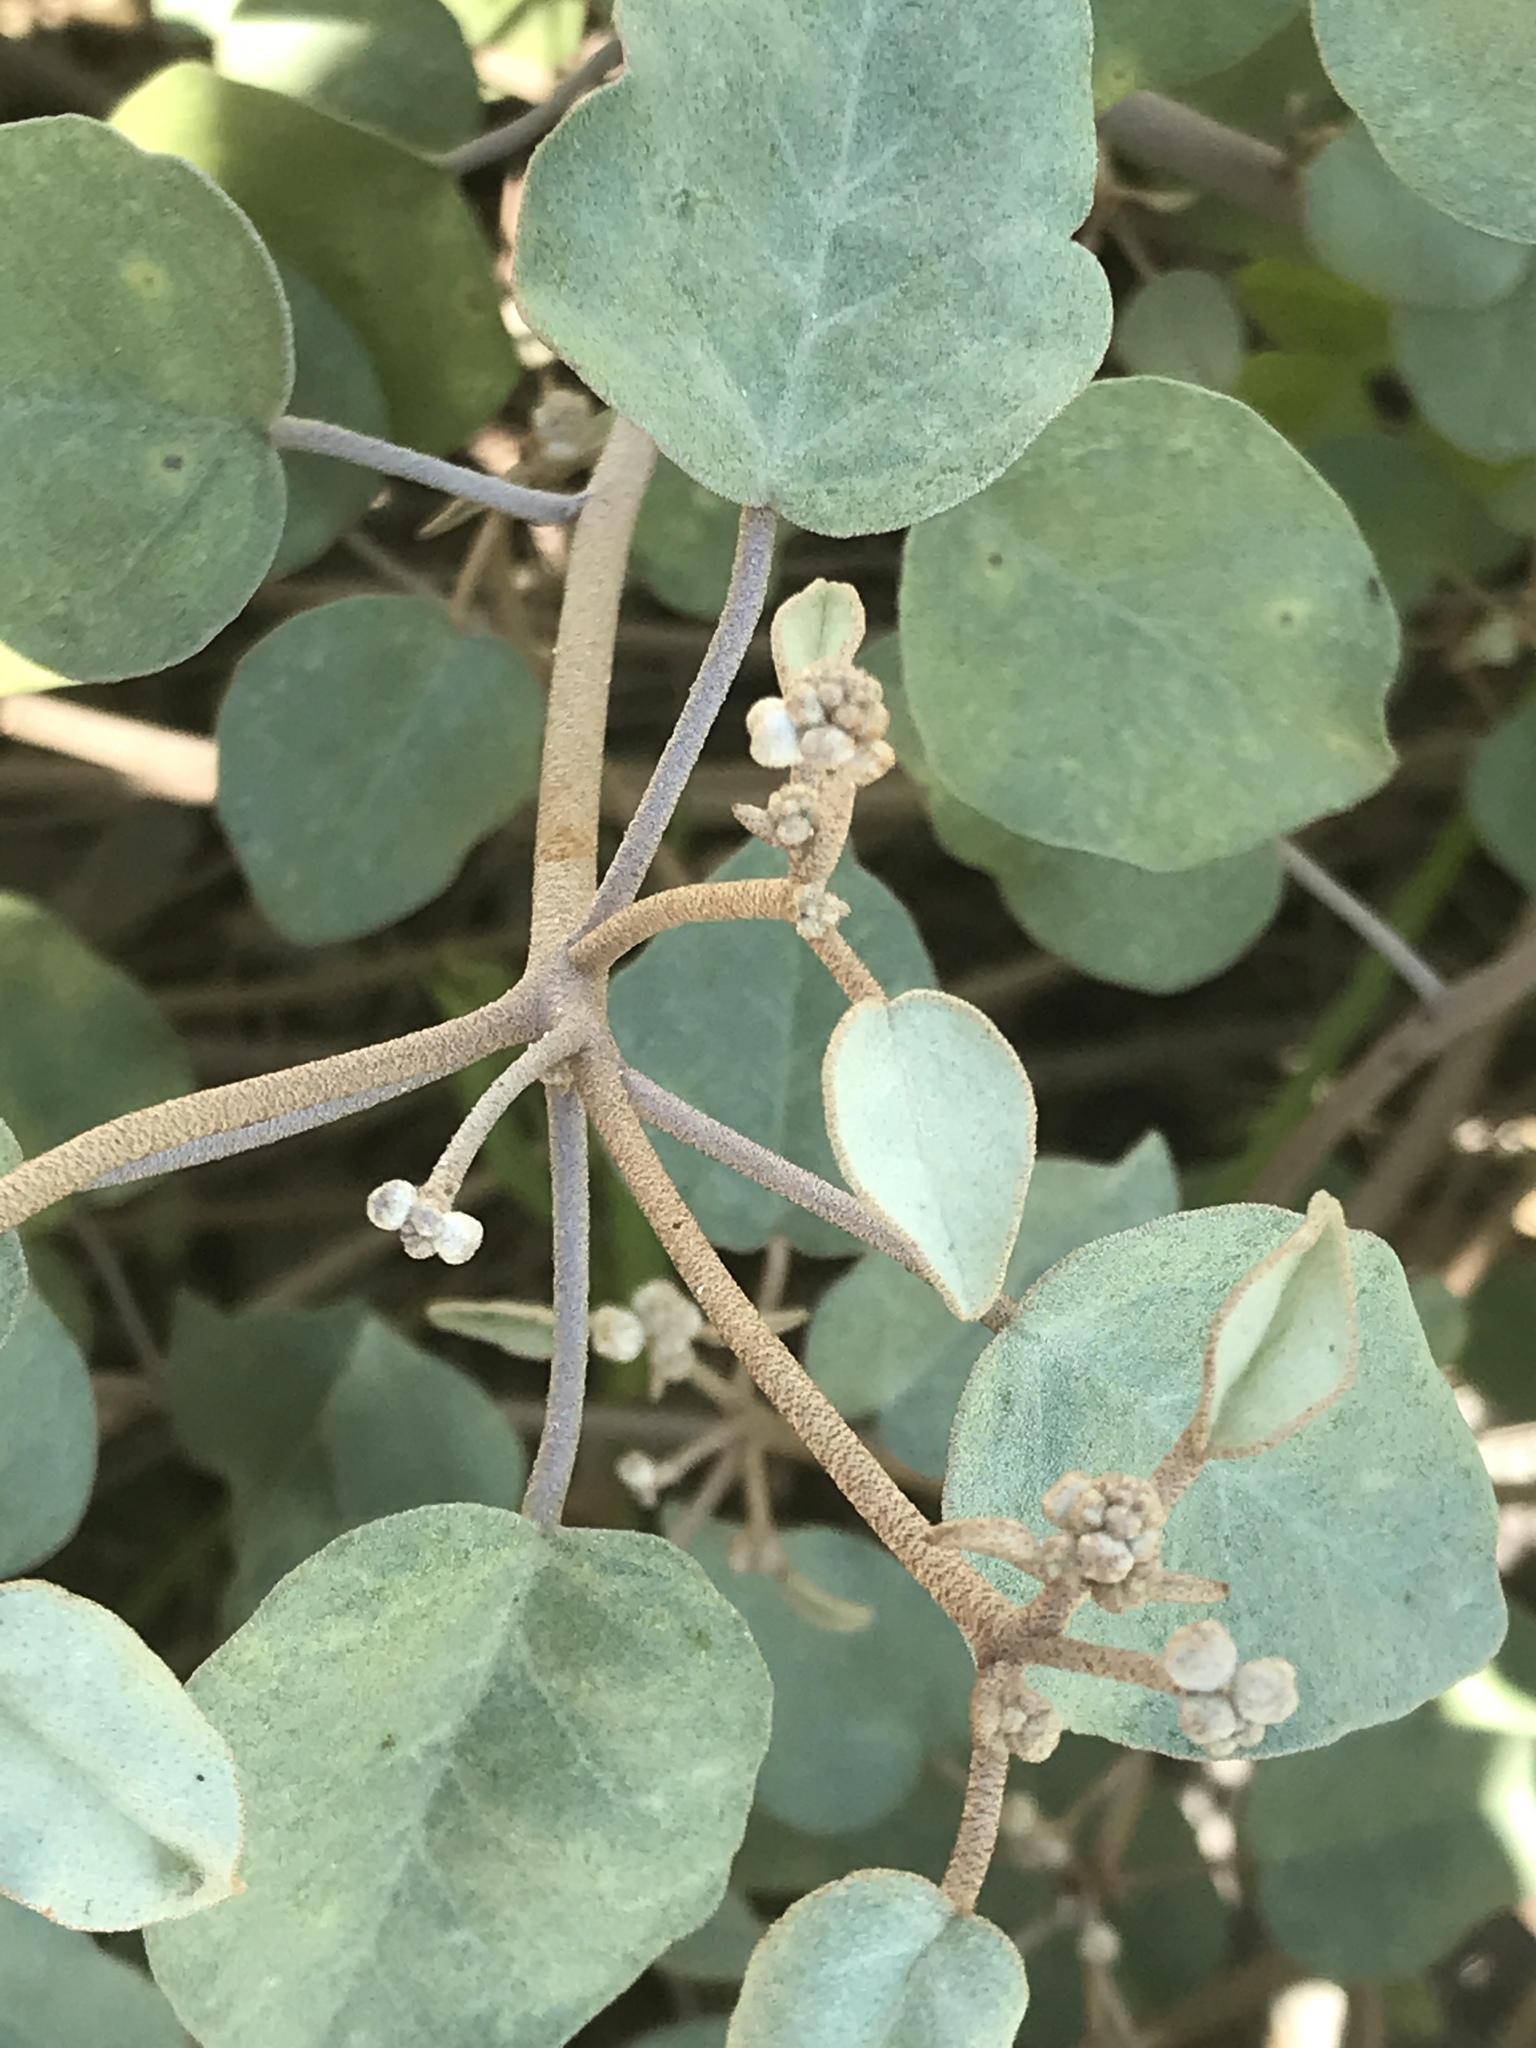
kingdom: Plantae
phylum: Tracheophyta
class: Magnoliopsida
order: Malpighiales
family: Euphorbiaceae
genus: Croton
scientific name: Croton punctatus
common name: Beach-tea
